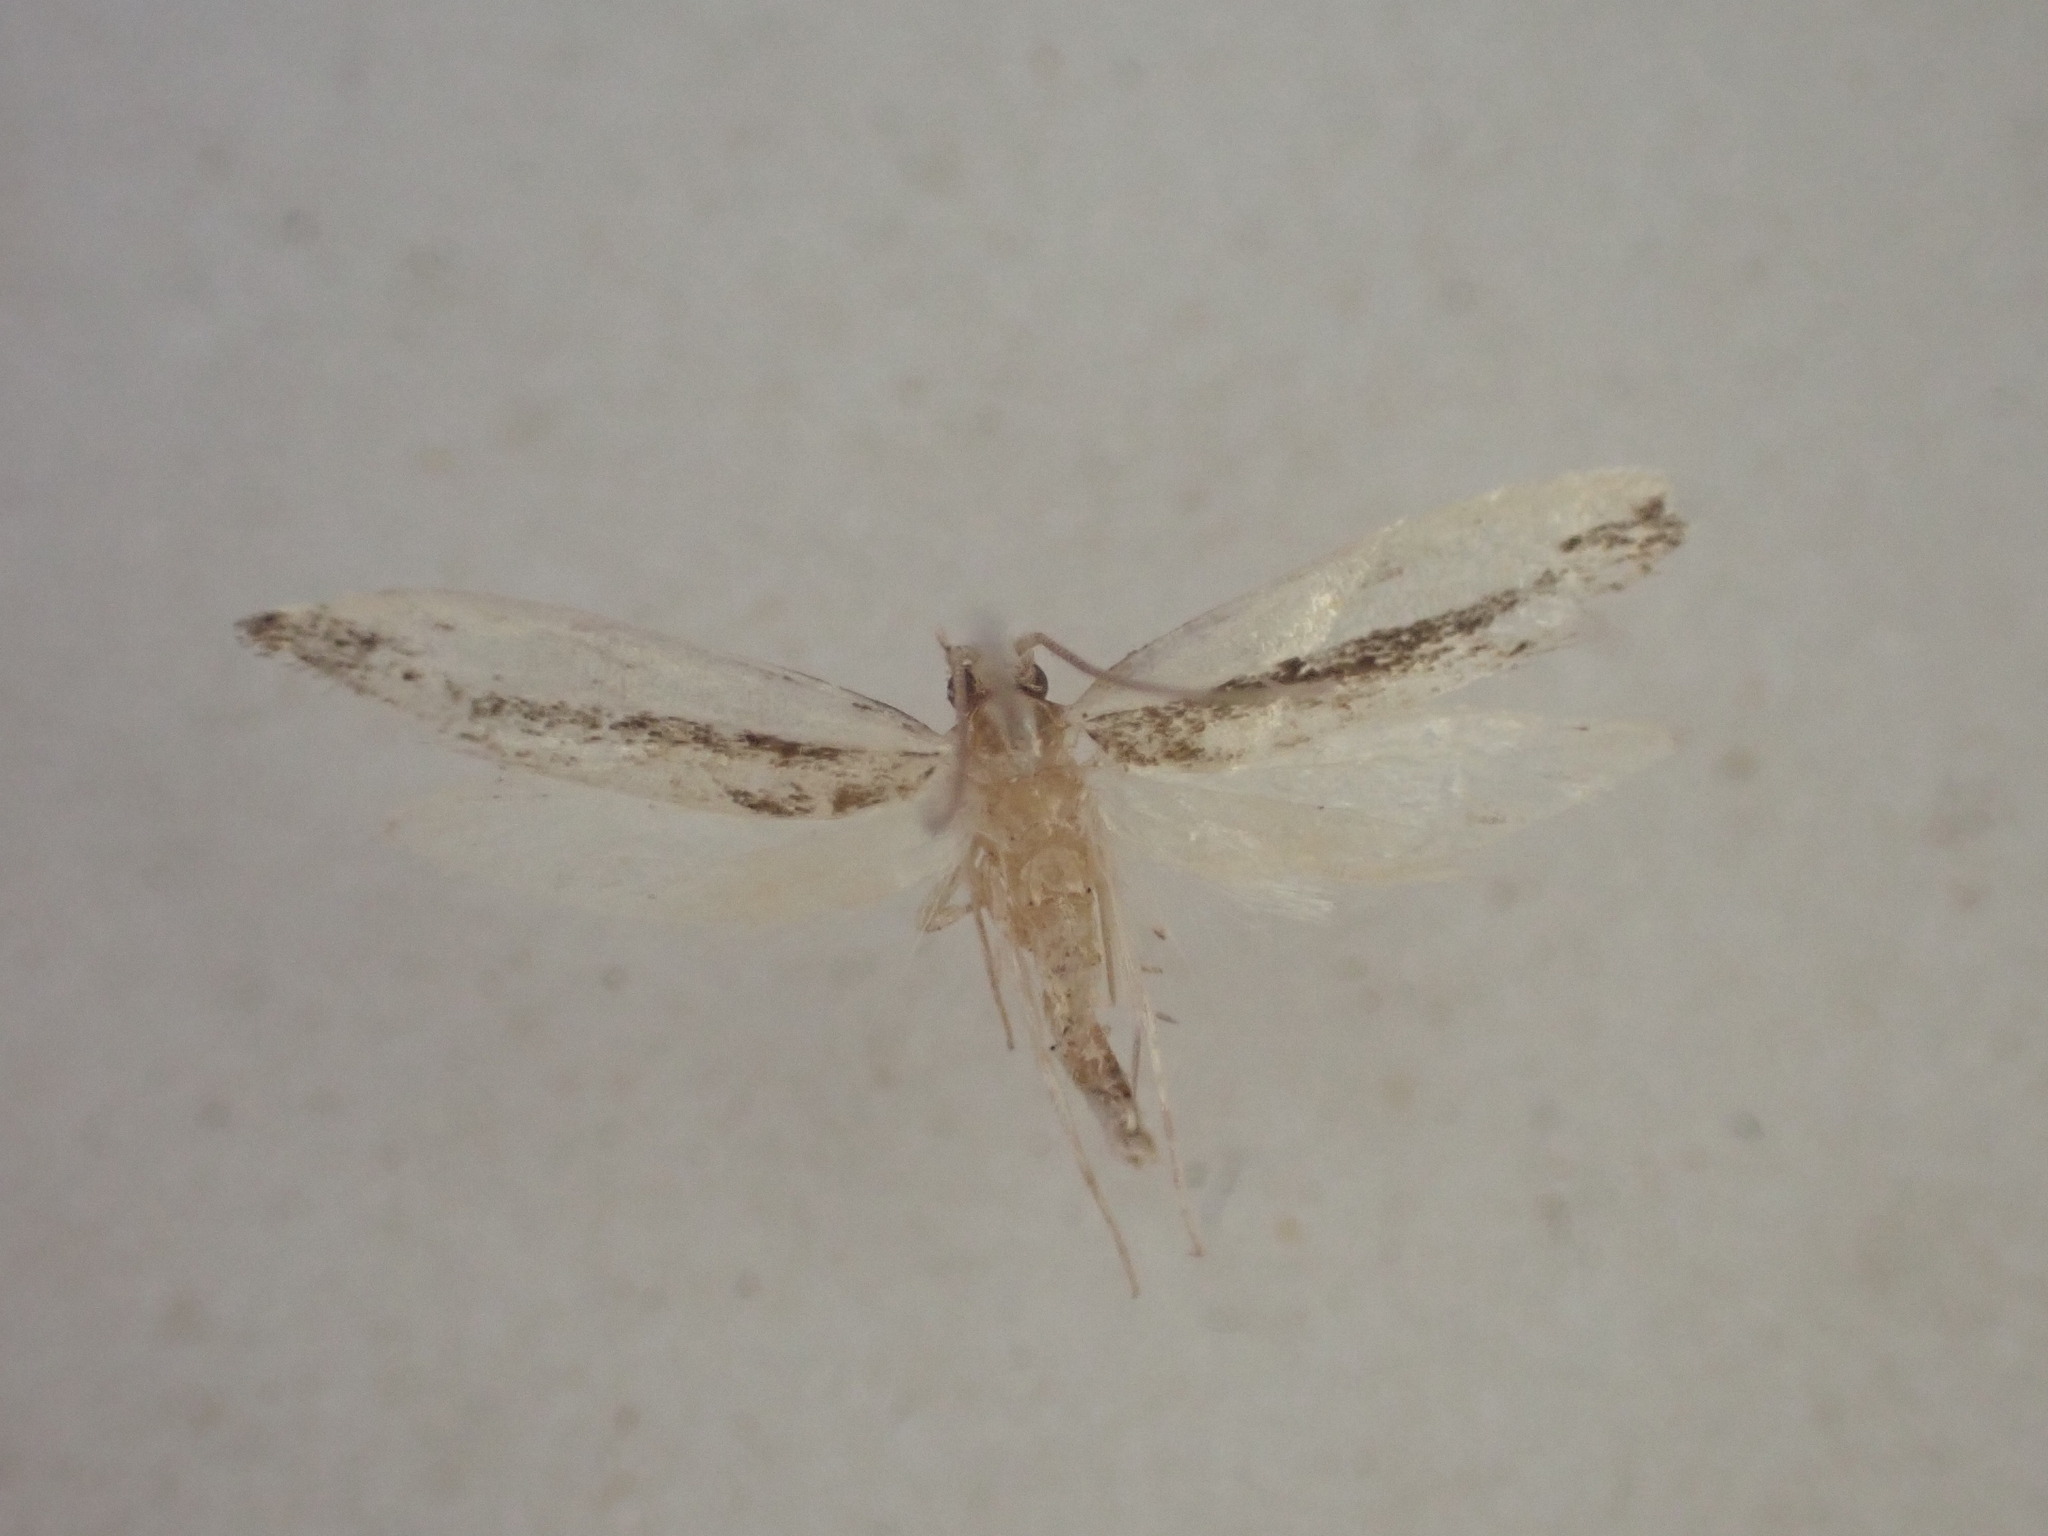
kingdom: Animalia
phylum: Arthropoda
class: Insecta
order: Lepidoptera
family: Tineidae
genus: Erechthias
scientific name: Erechthias chionodira
